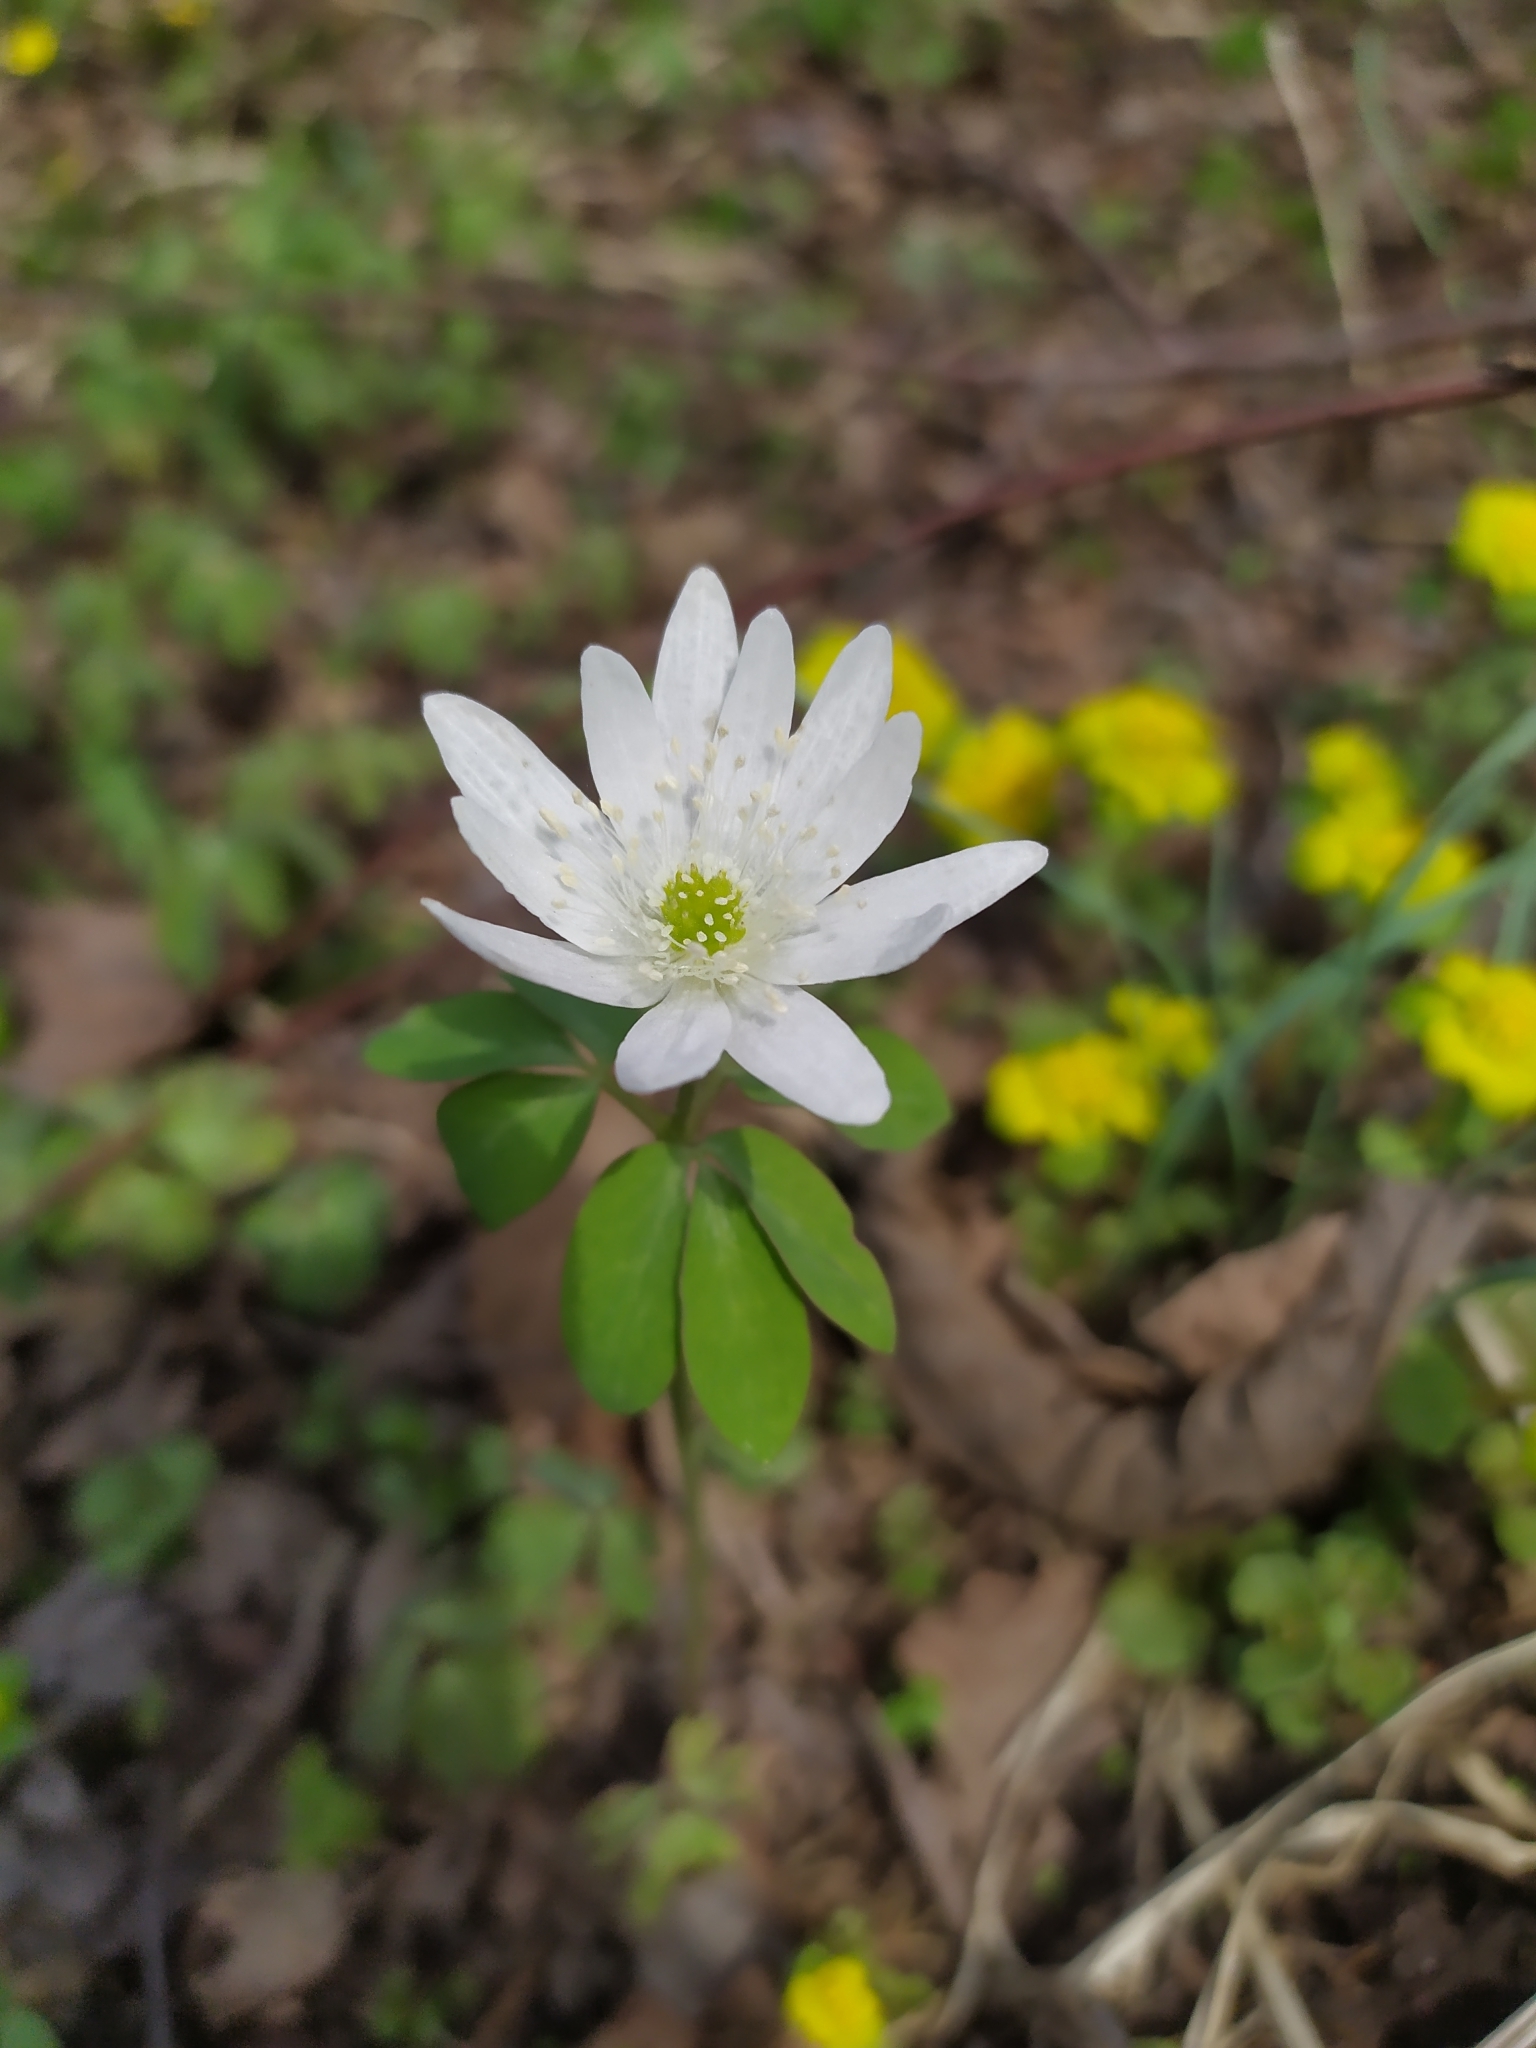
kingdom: Plantae
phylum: Tracheophyta
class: Magnoliopsida
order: Ranunculales
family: Ranunculaceae
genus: Anemone
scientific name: Anemone raddeana
